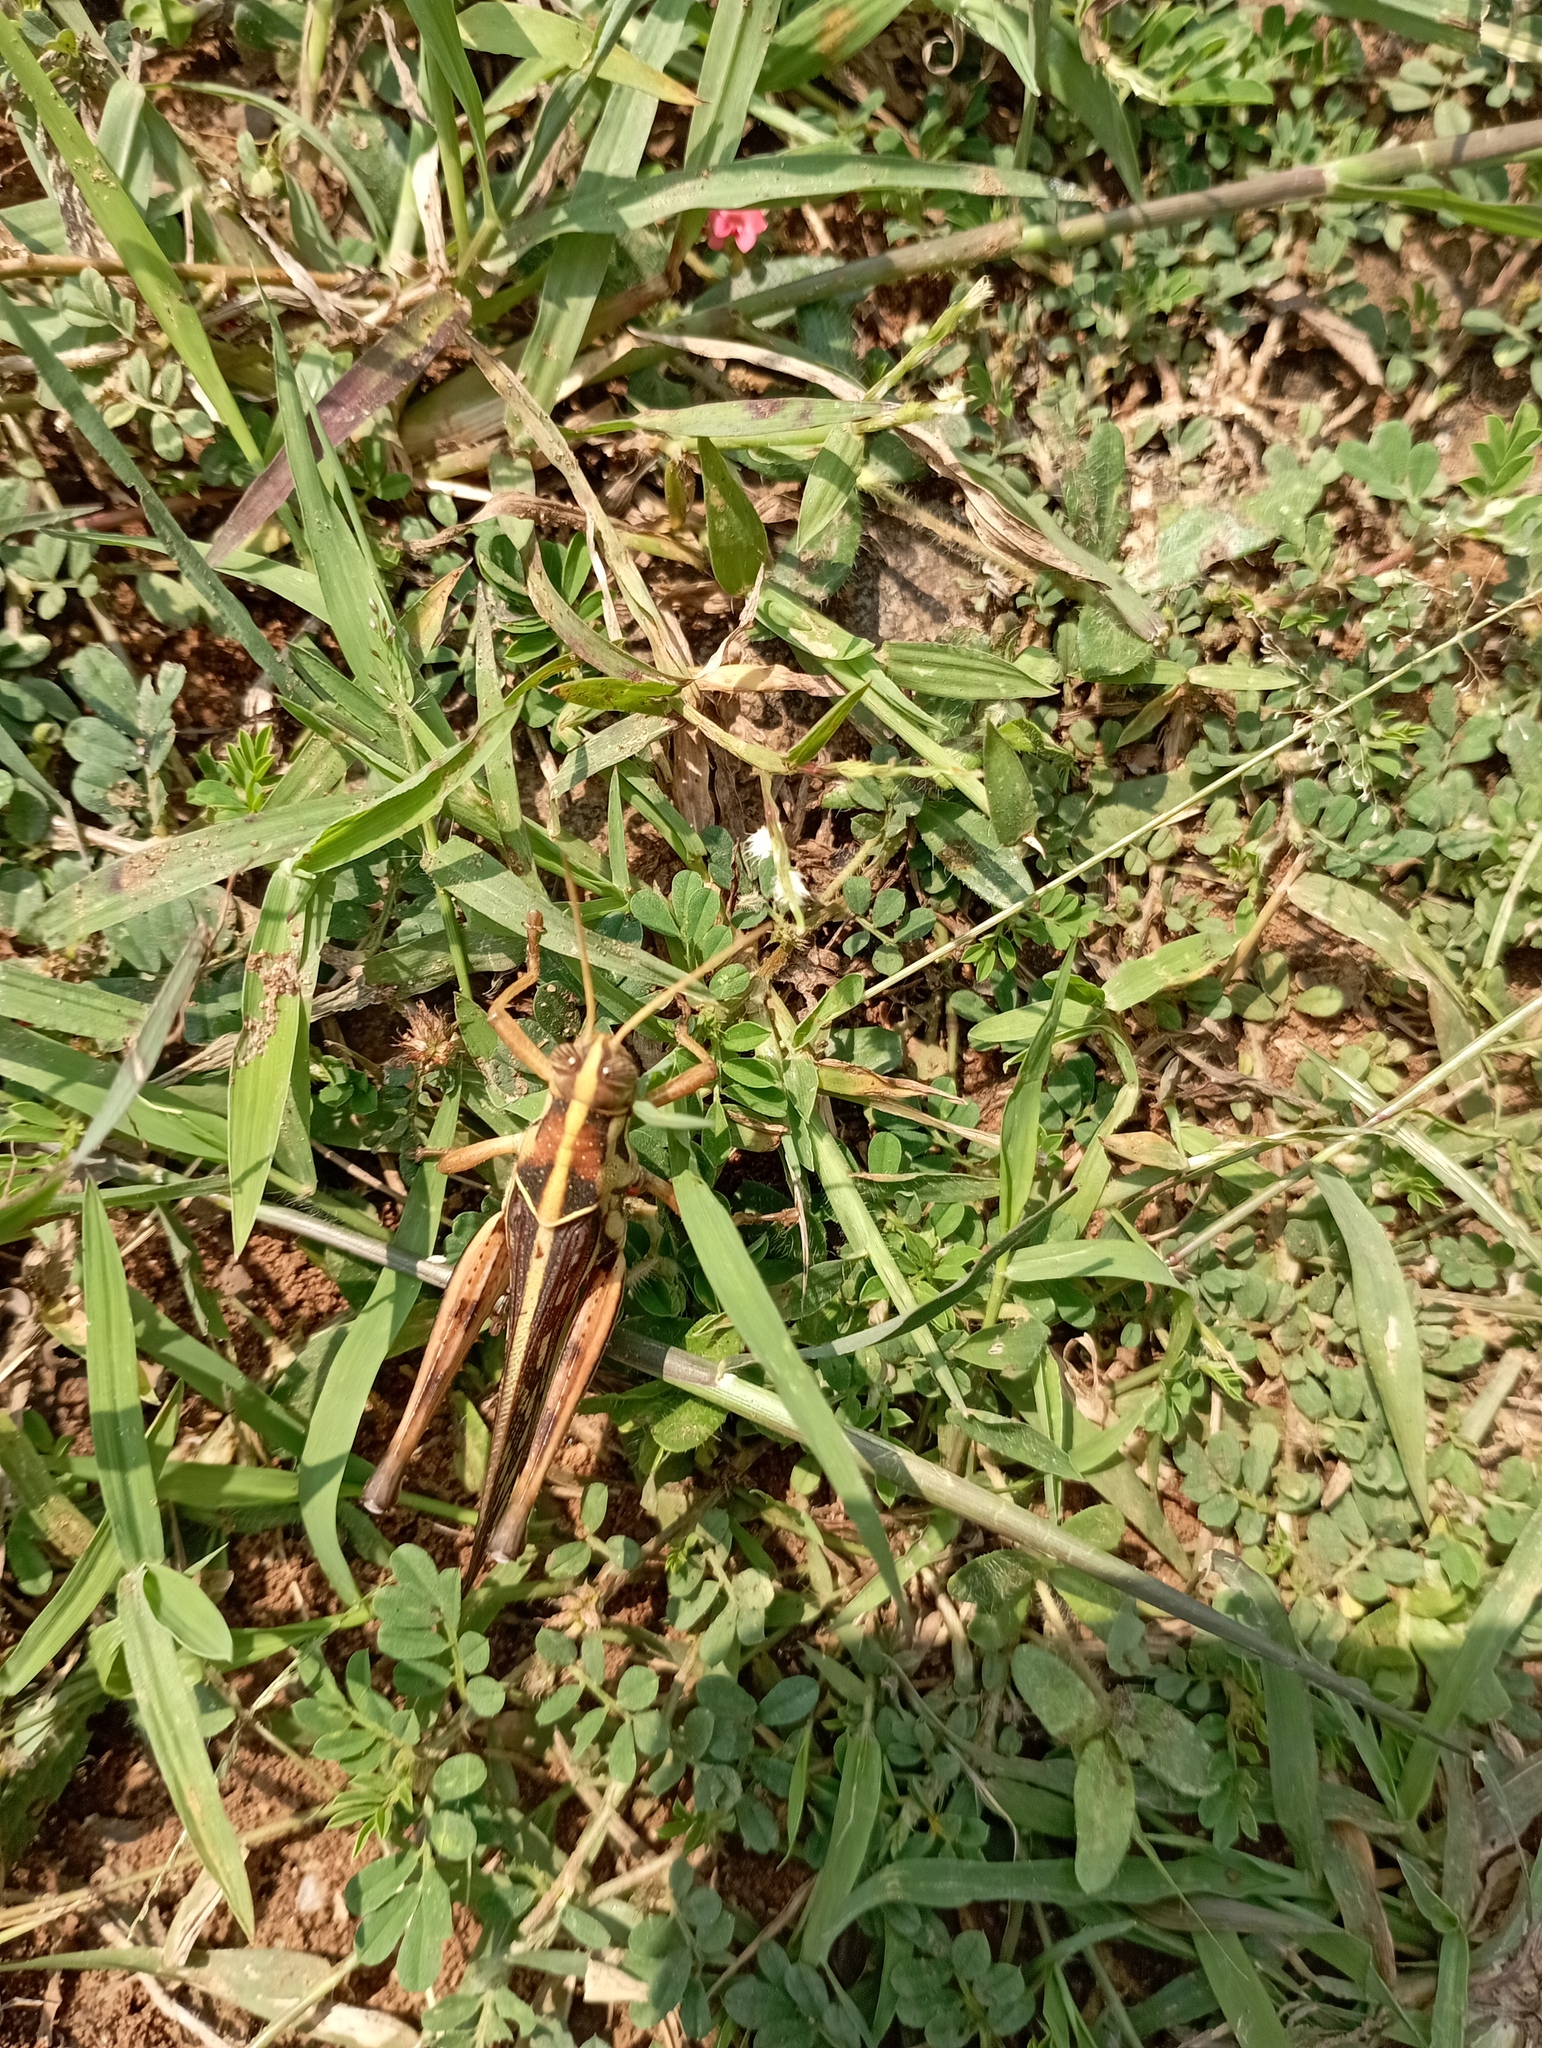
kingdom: Animalia
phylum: Arthropoda
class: Insecta
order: Orthoptera
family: Acrididae
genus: Cyrtacanthacris
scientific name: Cyrtacanthacris tatarica
